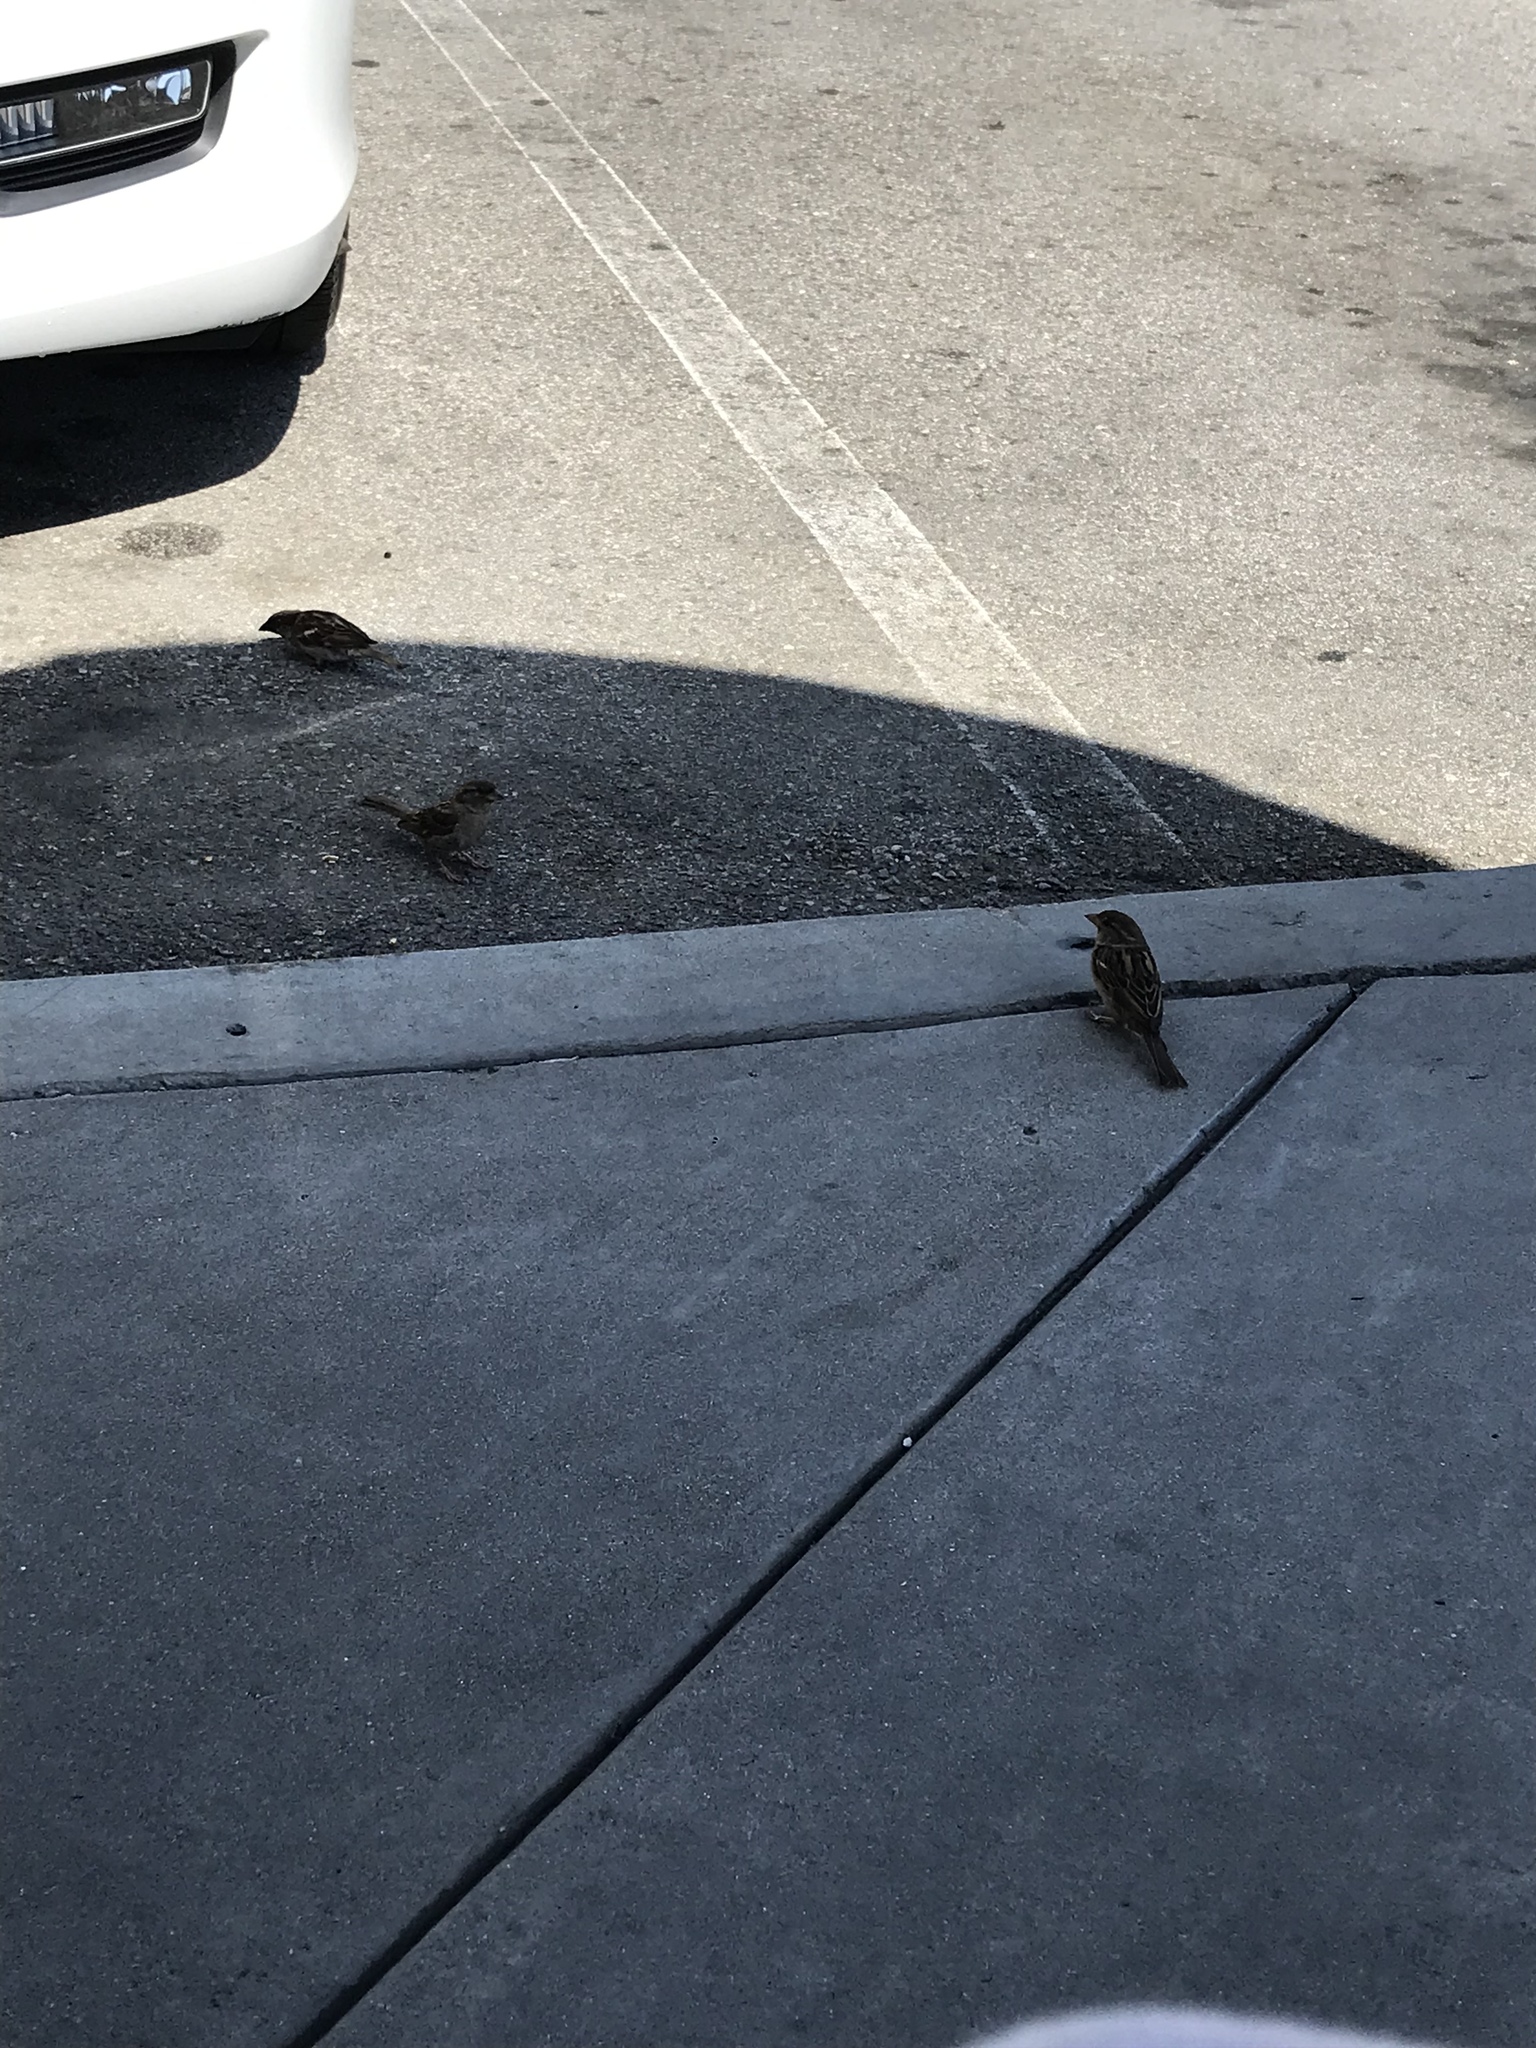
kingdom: Animalia
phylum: Chordata
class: Aves
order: Passeriformes
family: Passeridae
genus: Passer
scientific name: Passer domesticus
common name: House sparrow
